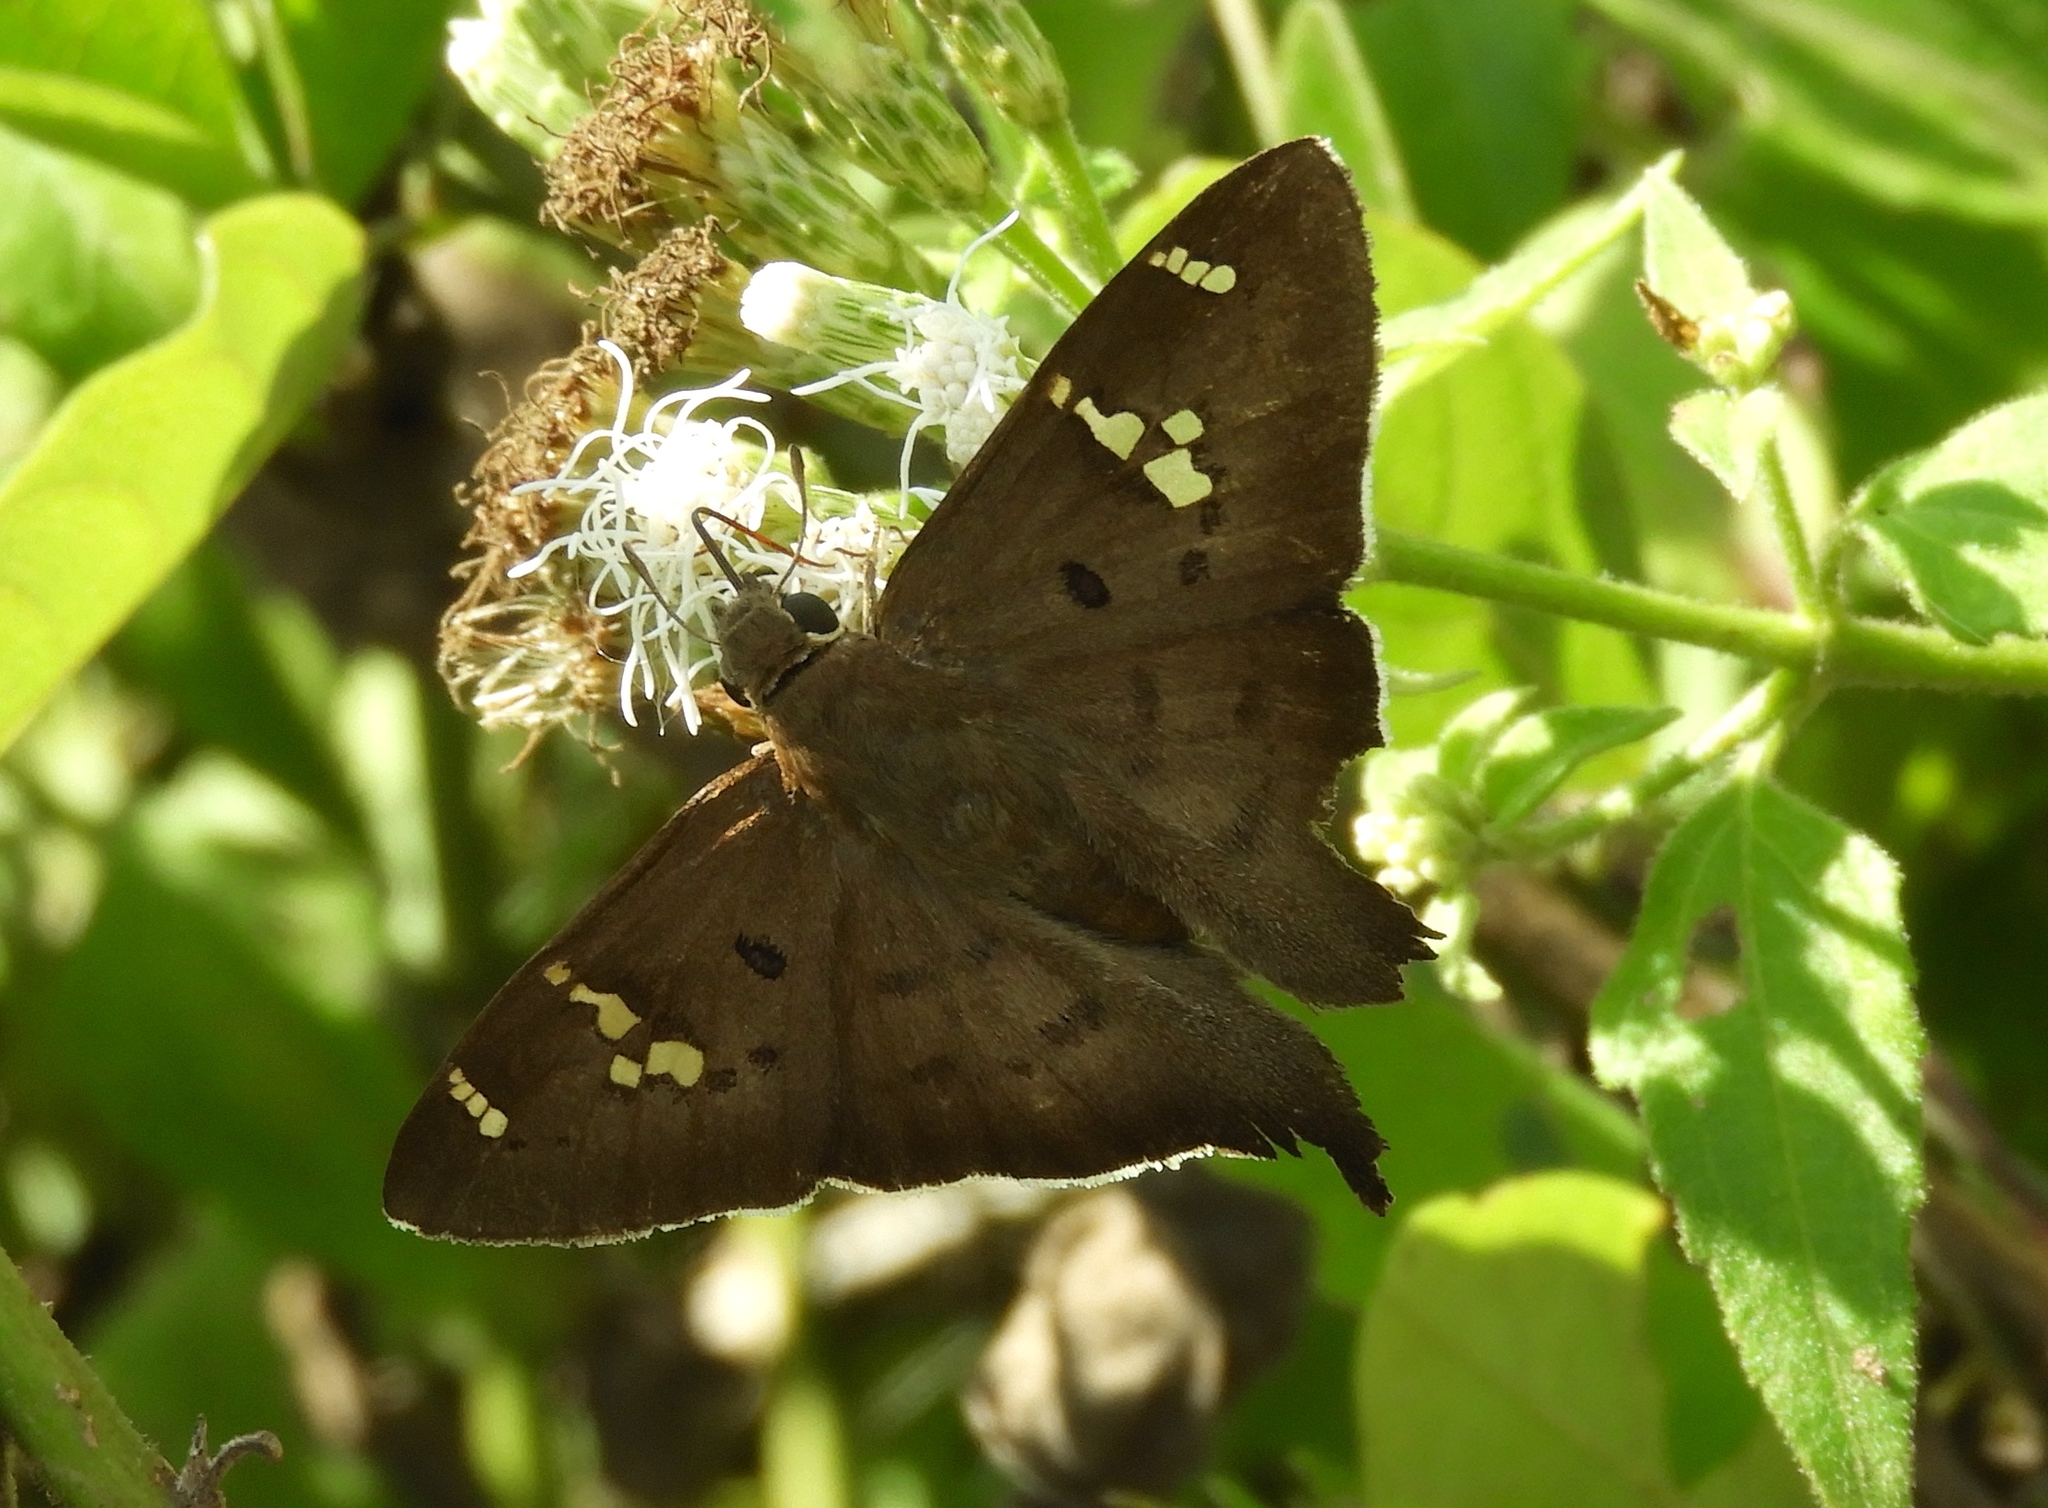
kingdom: Animalia
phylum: Arthropoda
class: Insecta
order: Lepidoptera
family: Hesperiidae
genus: Ectomis
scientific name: Ectomis
